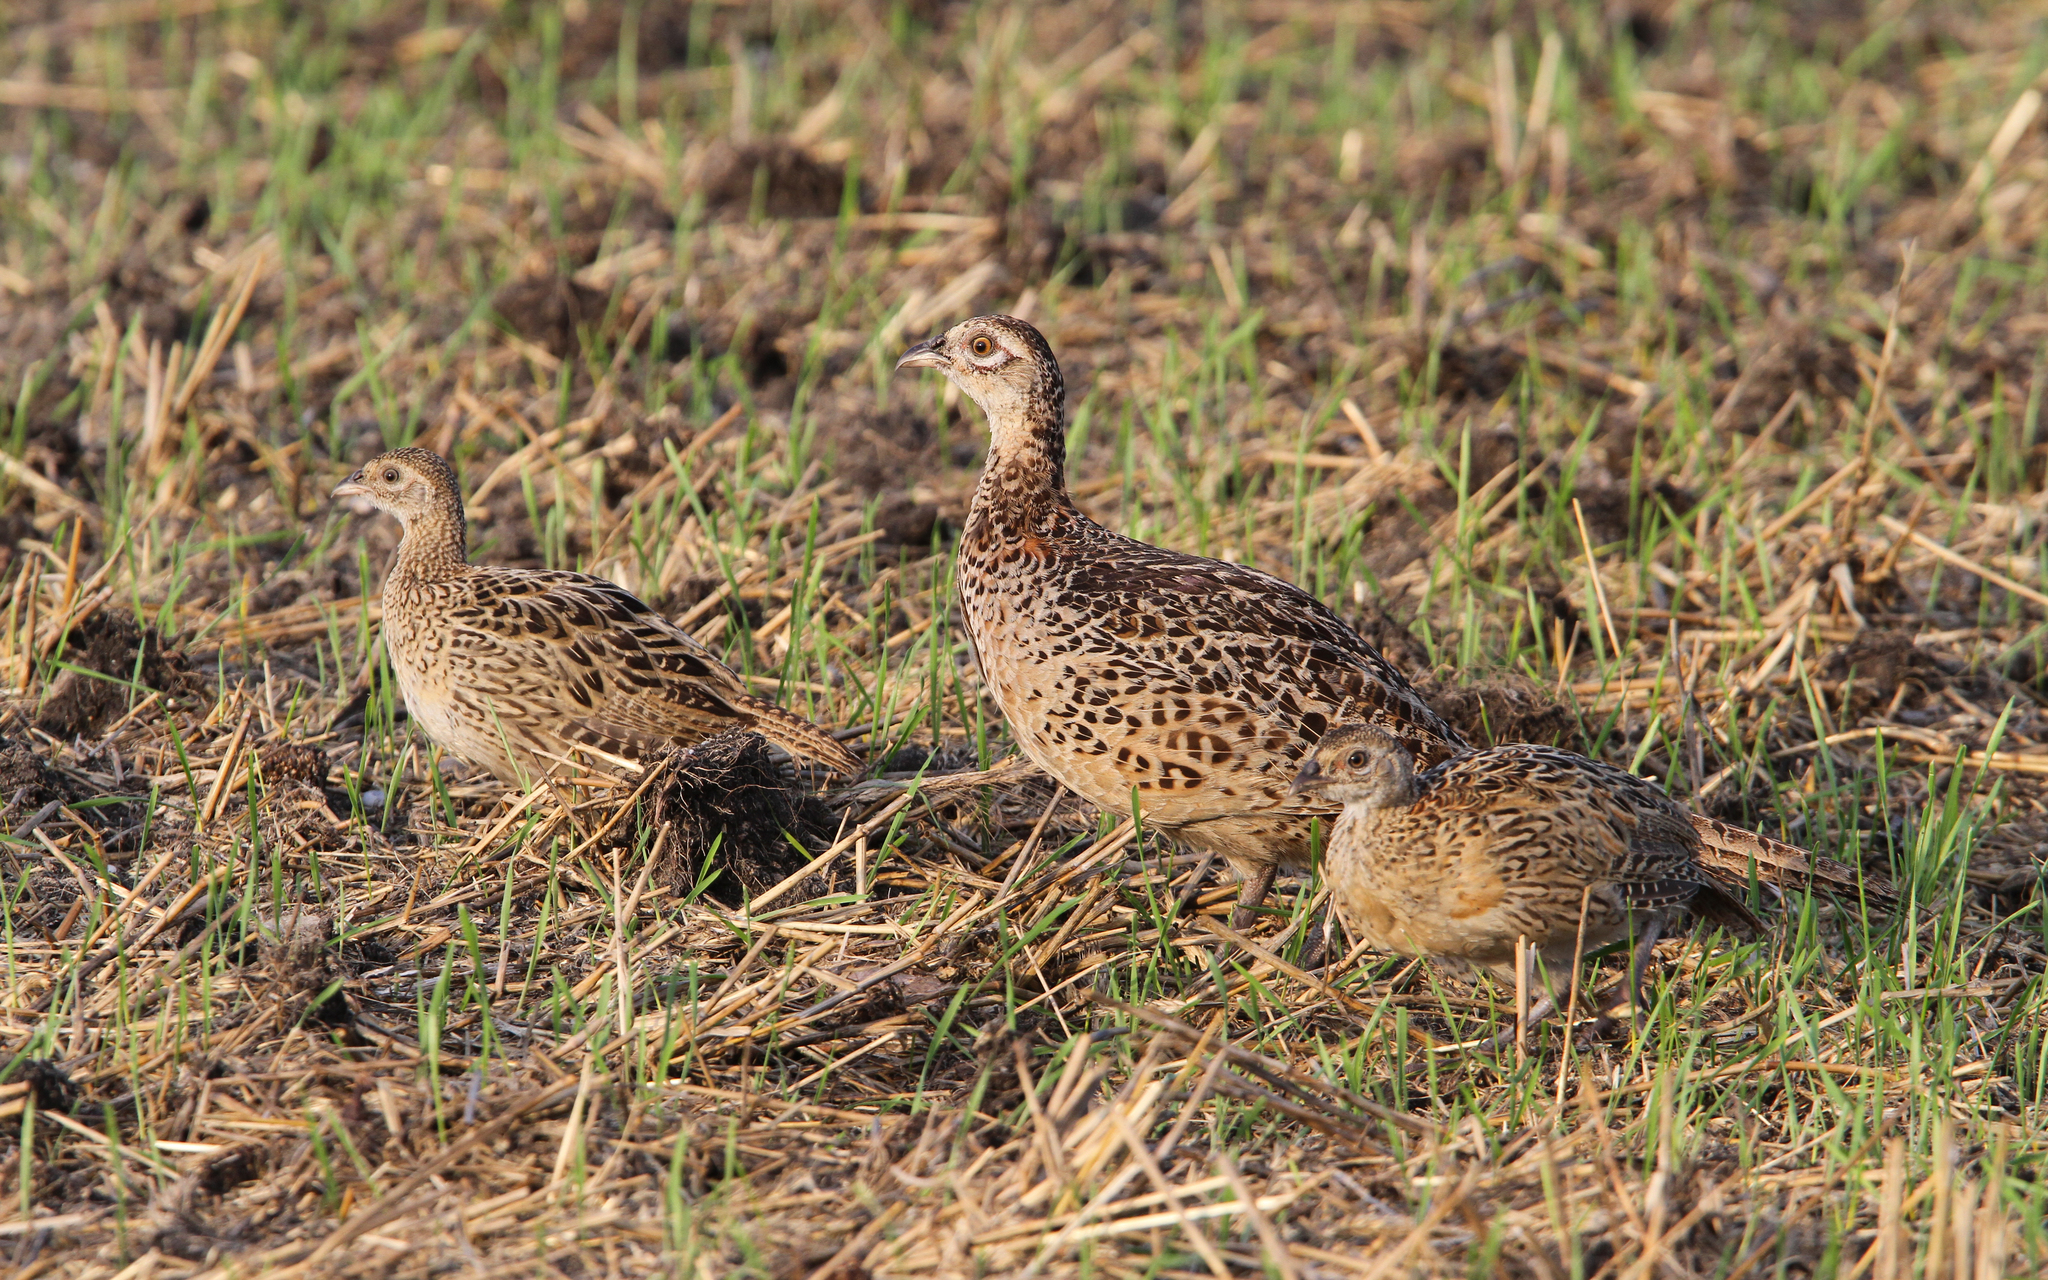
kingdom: Animalia
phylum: Chordata
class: Aves
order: Galliformes
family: Phasianidae
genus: Phasianus
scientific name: Phasianus colchicus
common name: Common pheasant
